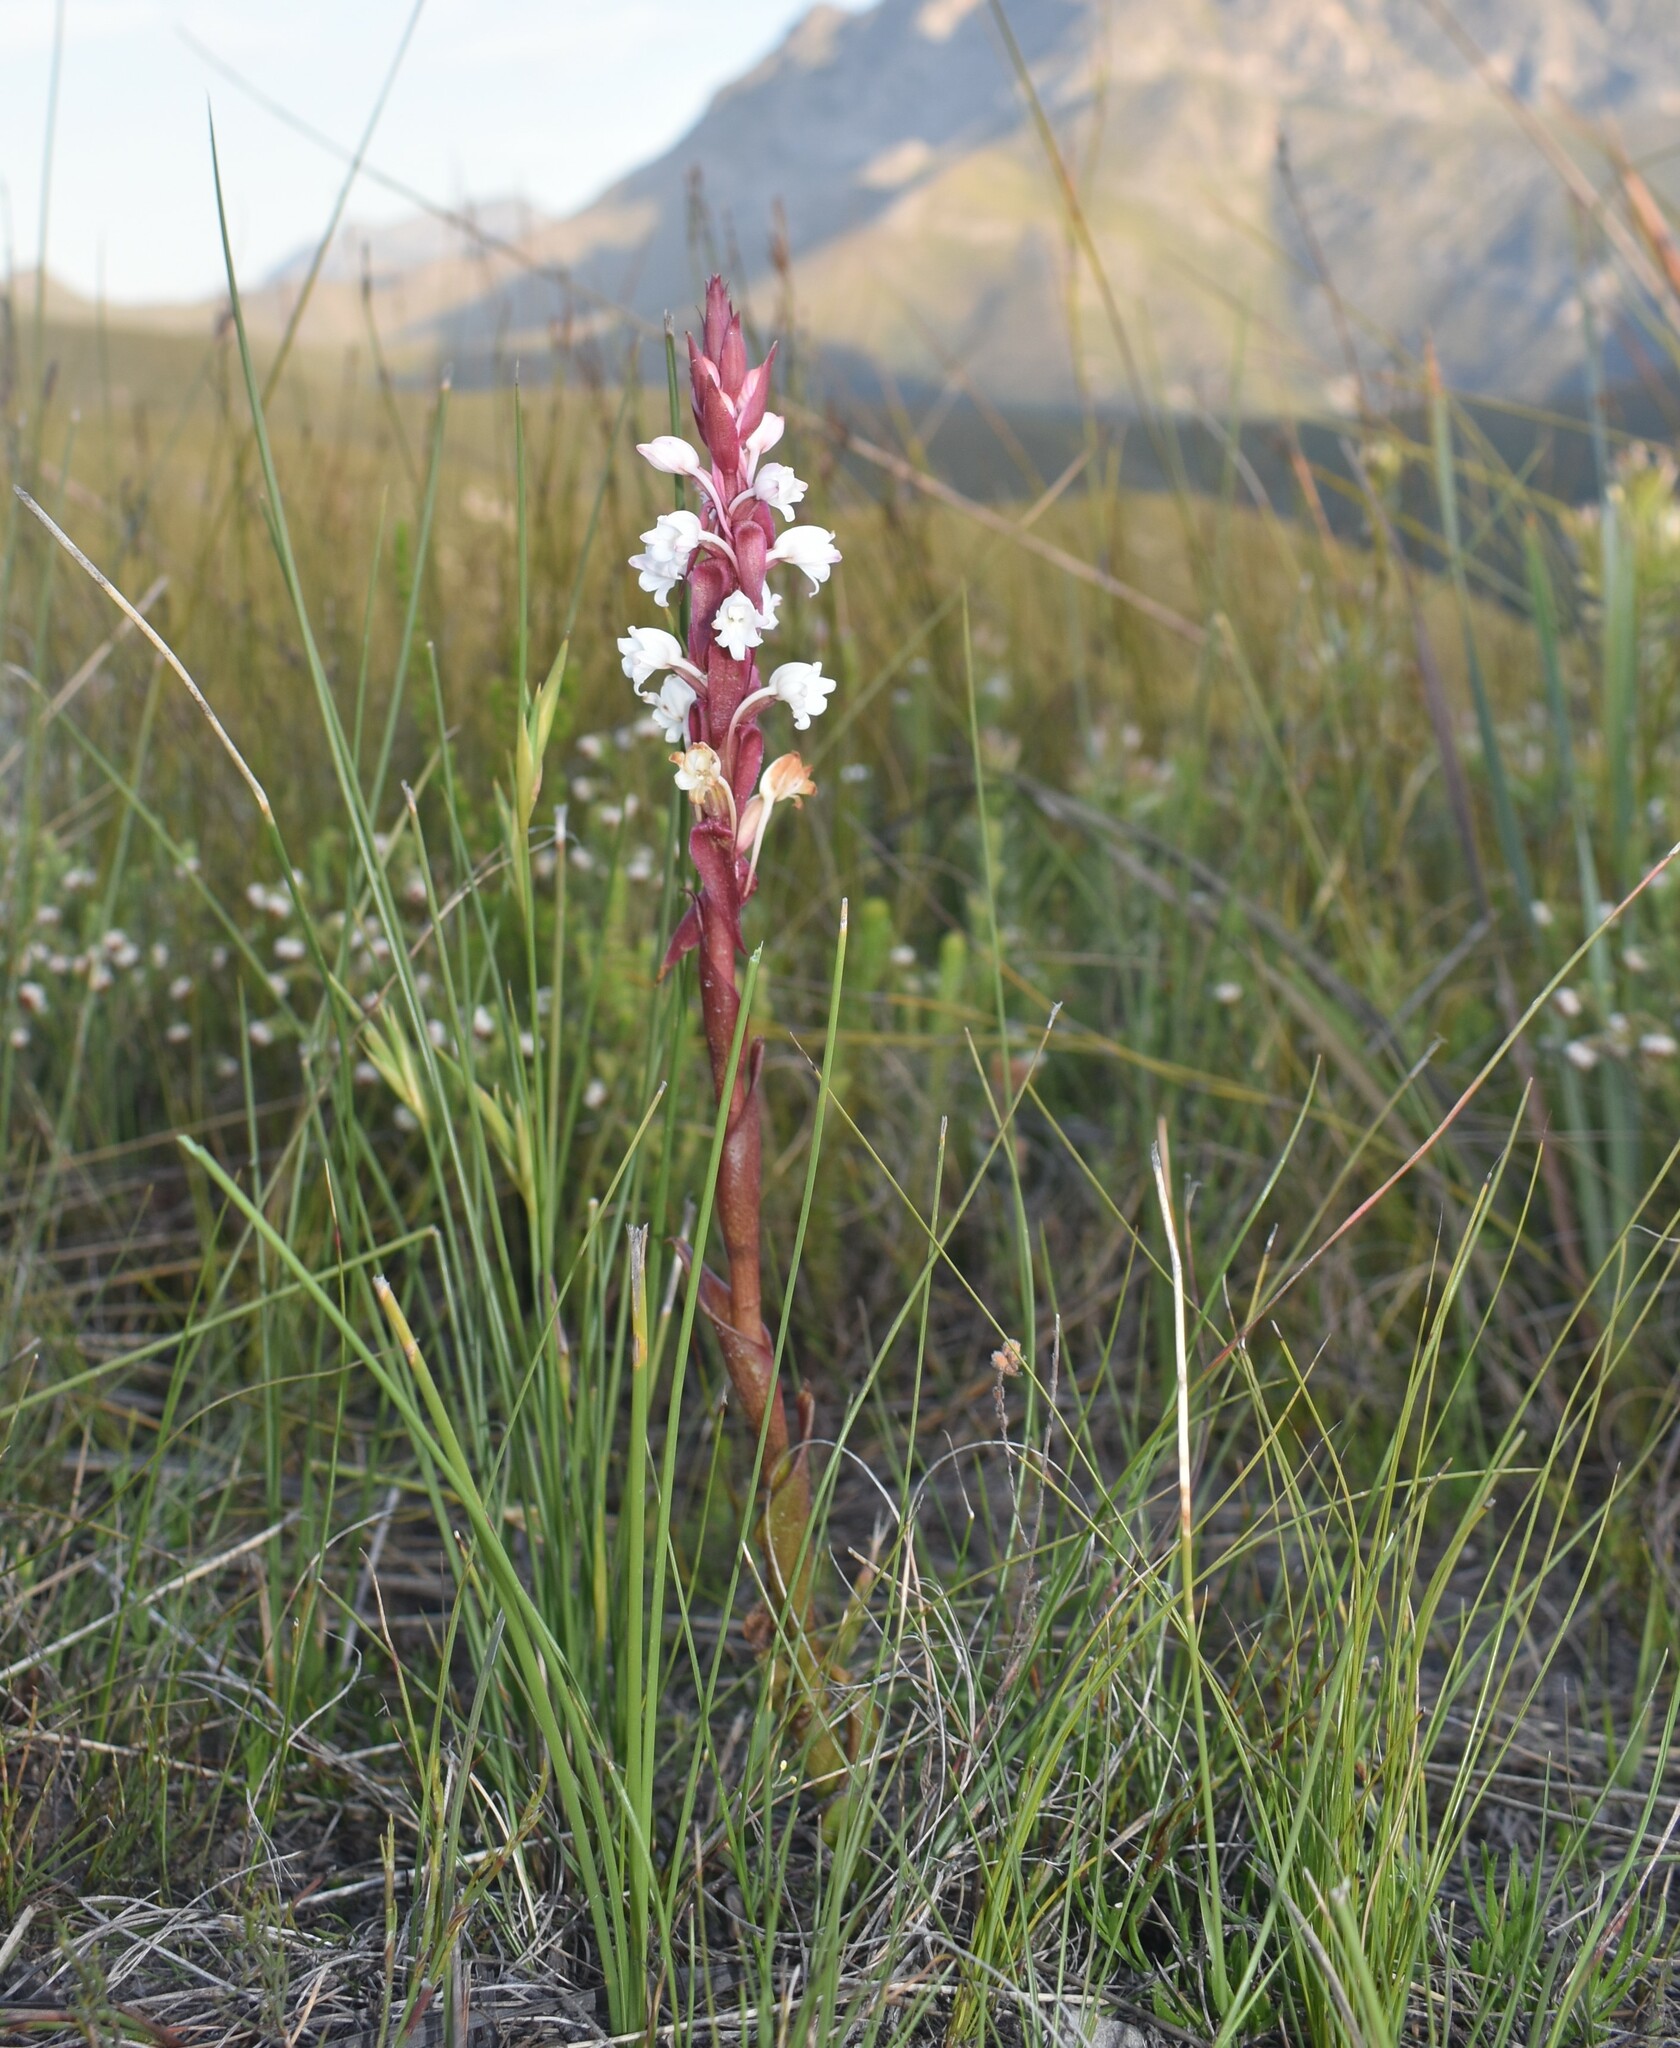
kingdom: Plantae
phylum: Tracheophyta
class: Liliopsida
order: Asparagales
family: Orchidaceae
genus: Satyrium
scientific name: Satyrium acuminatum
